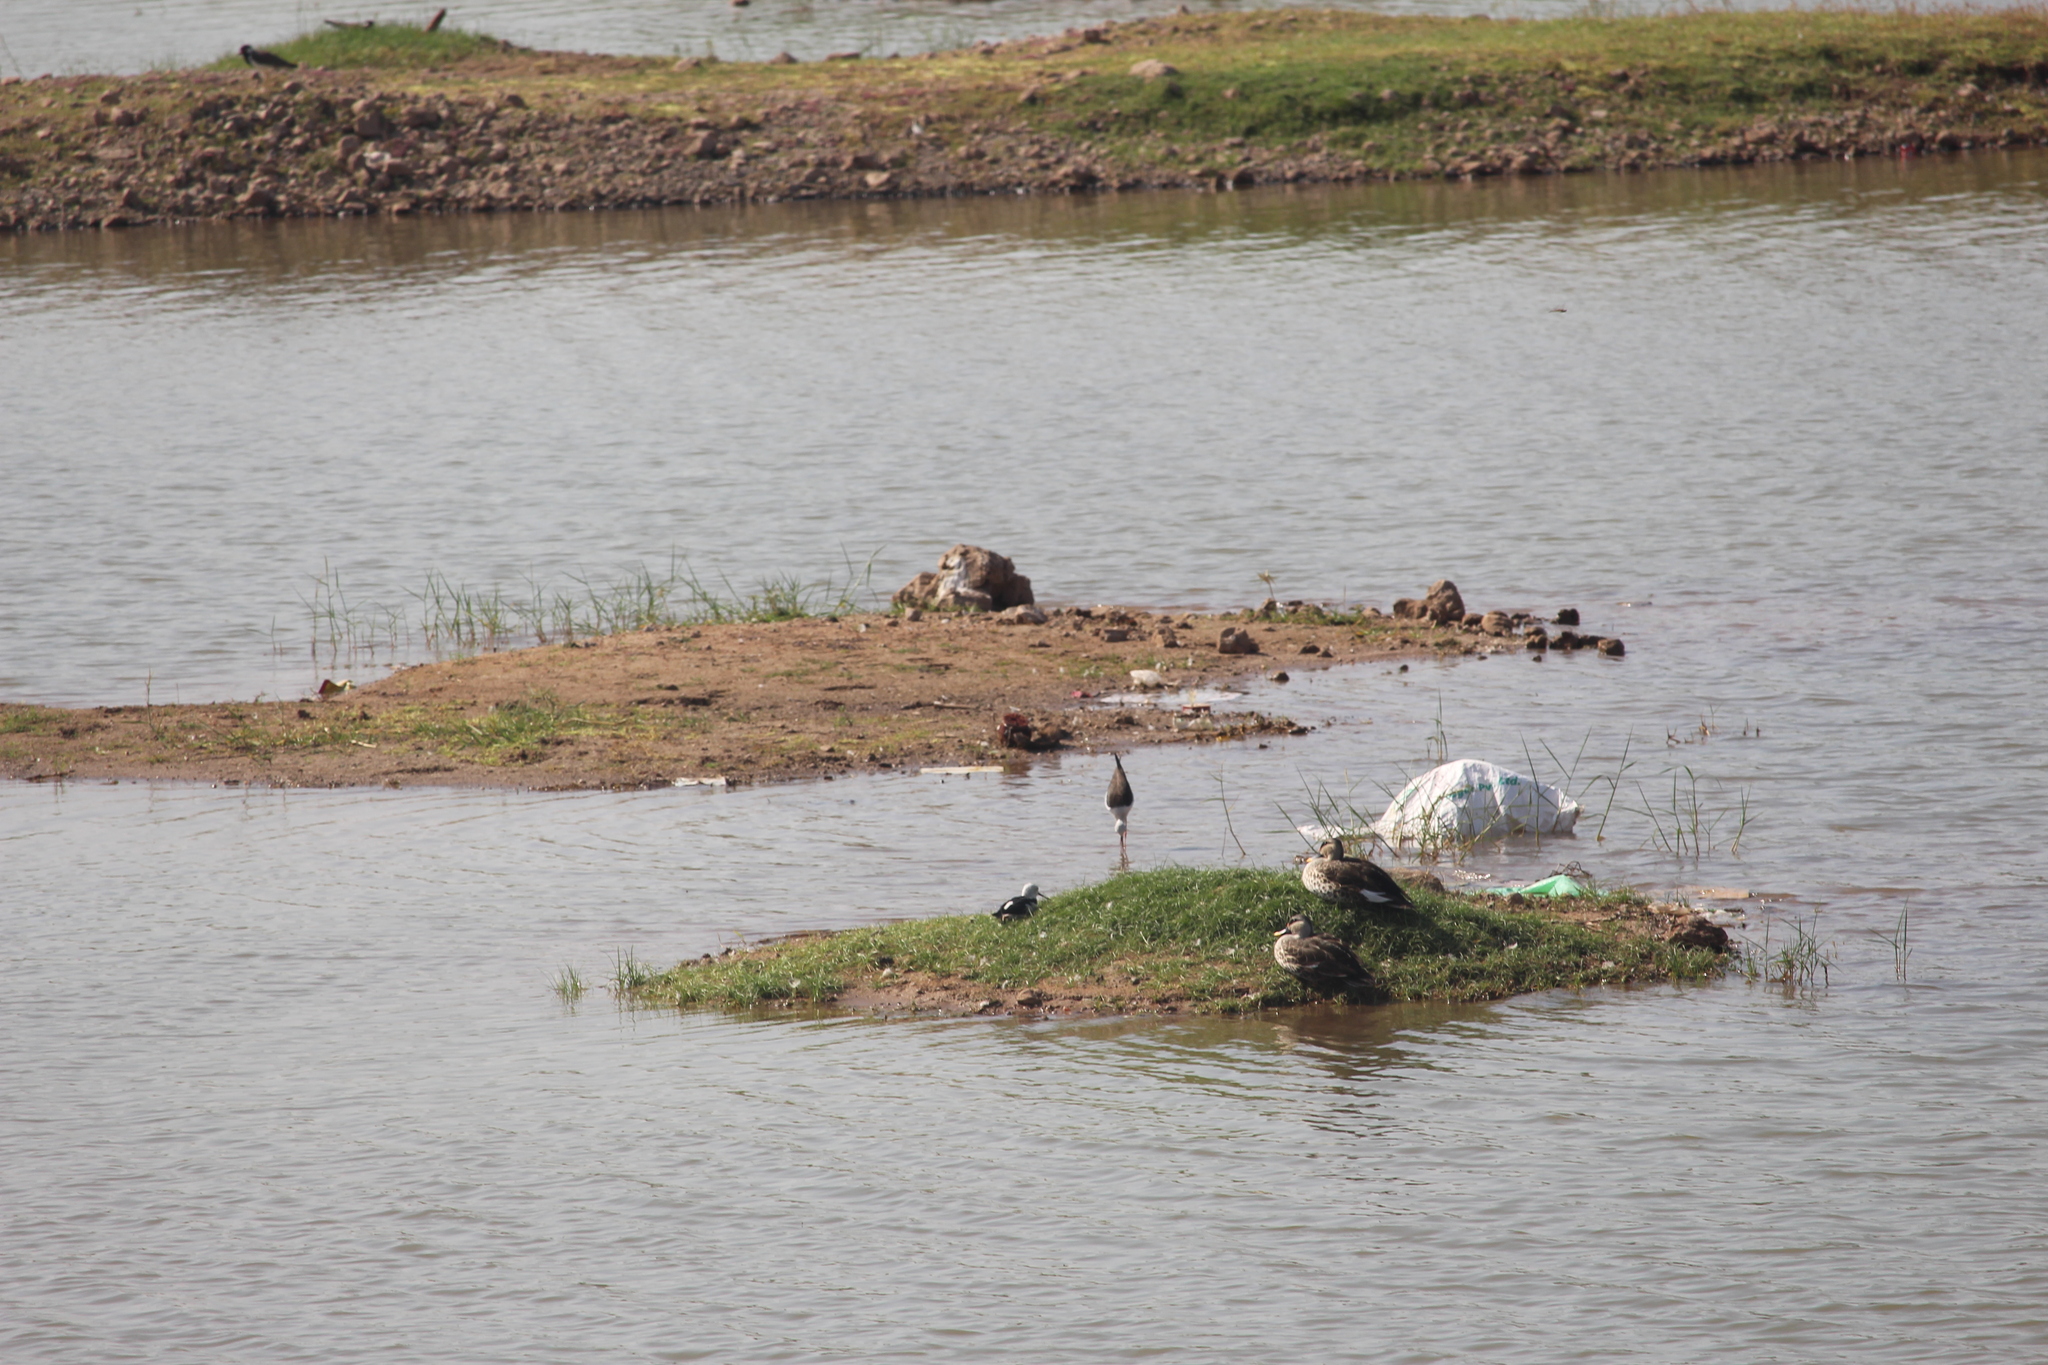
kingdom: Animalia
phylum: Chordata
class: Aves
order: Anseriformes
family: Anatidae
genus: Anas
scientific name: Anas poecilorhyncha
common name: Indian spot-billed duck
